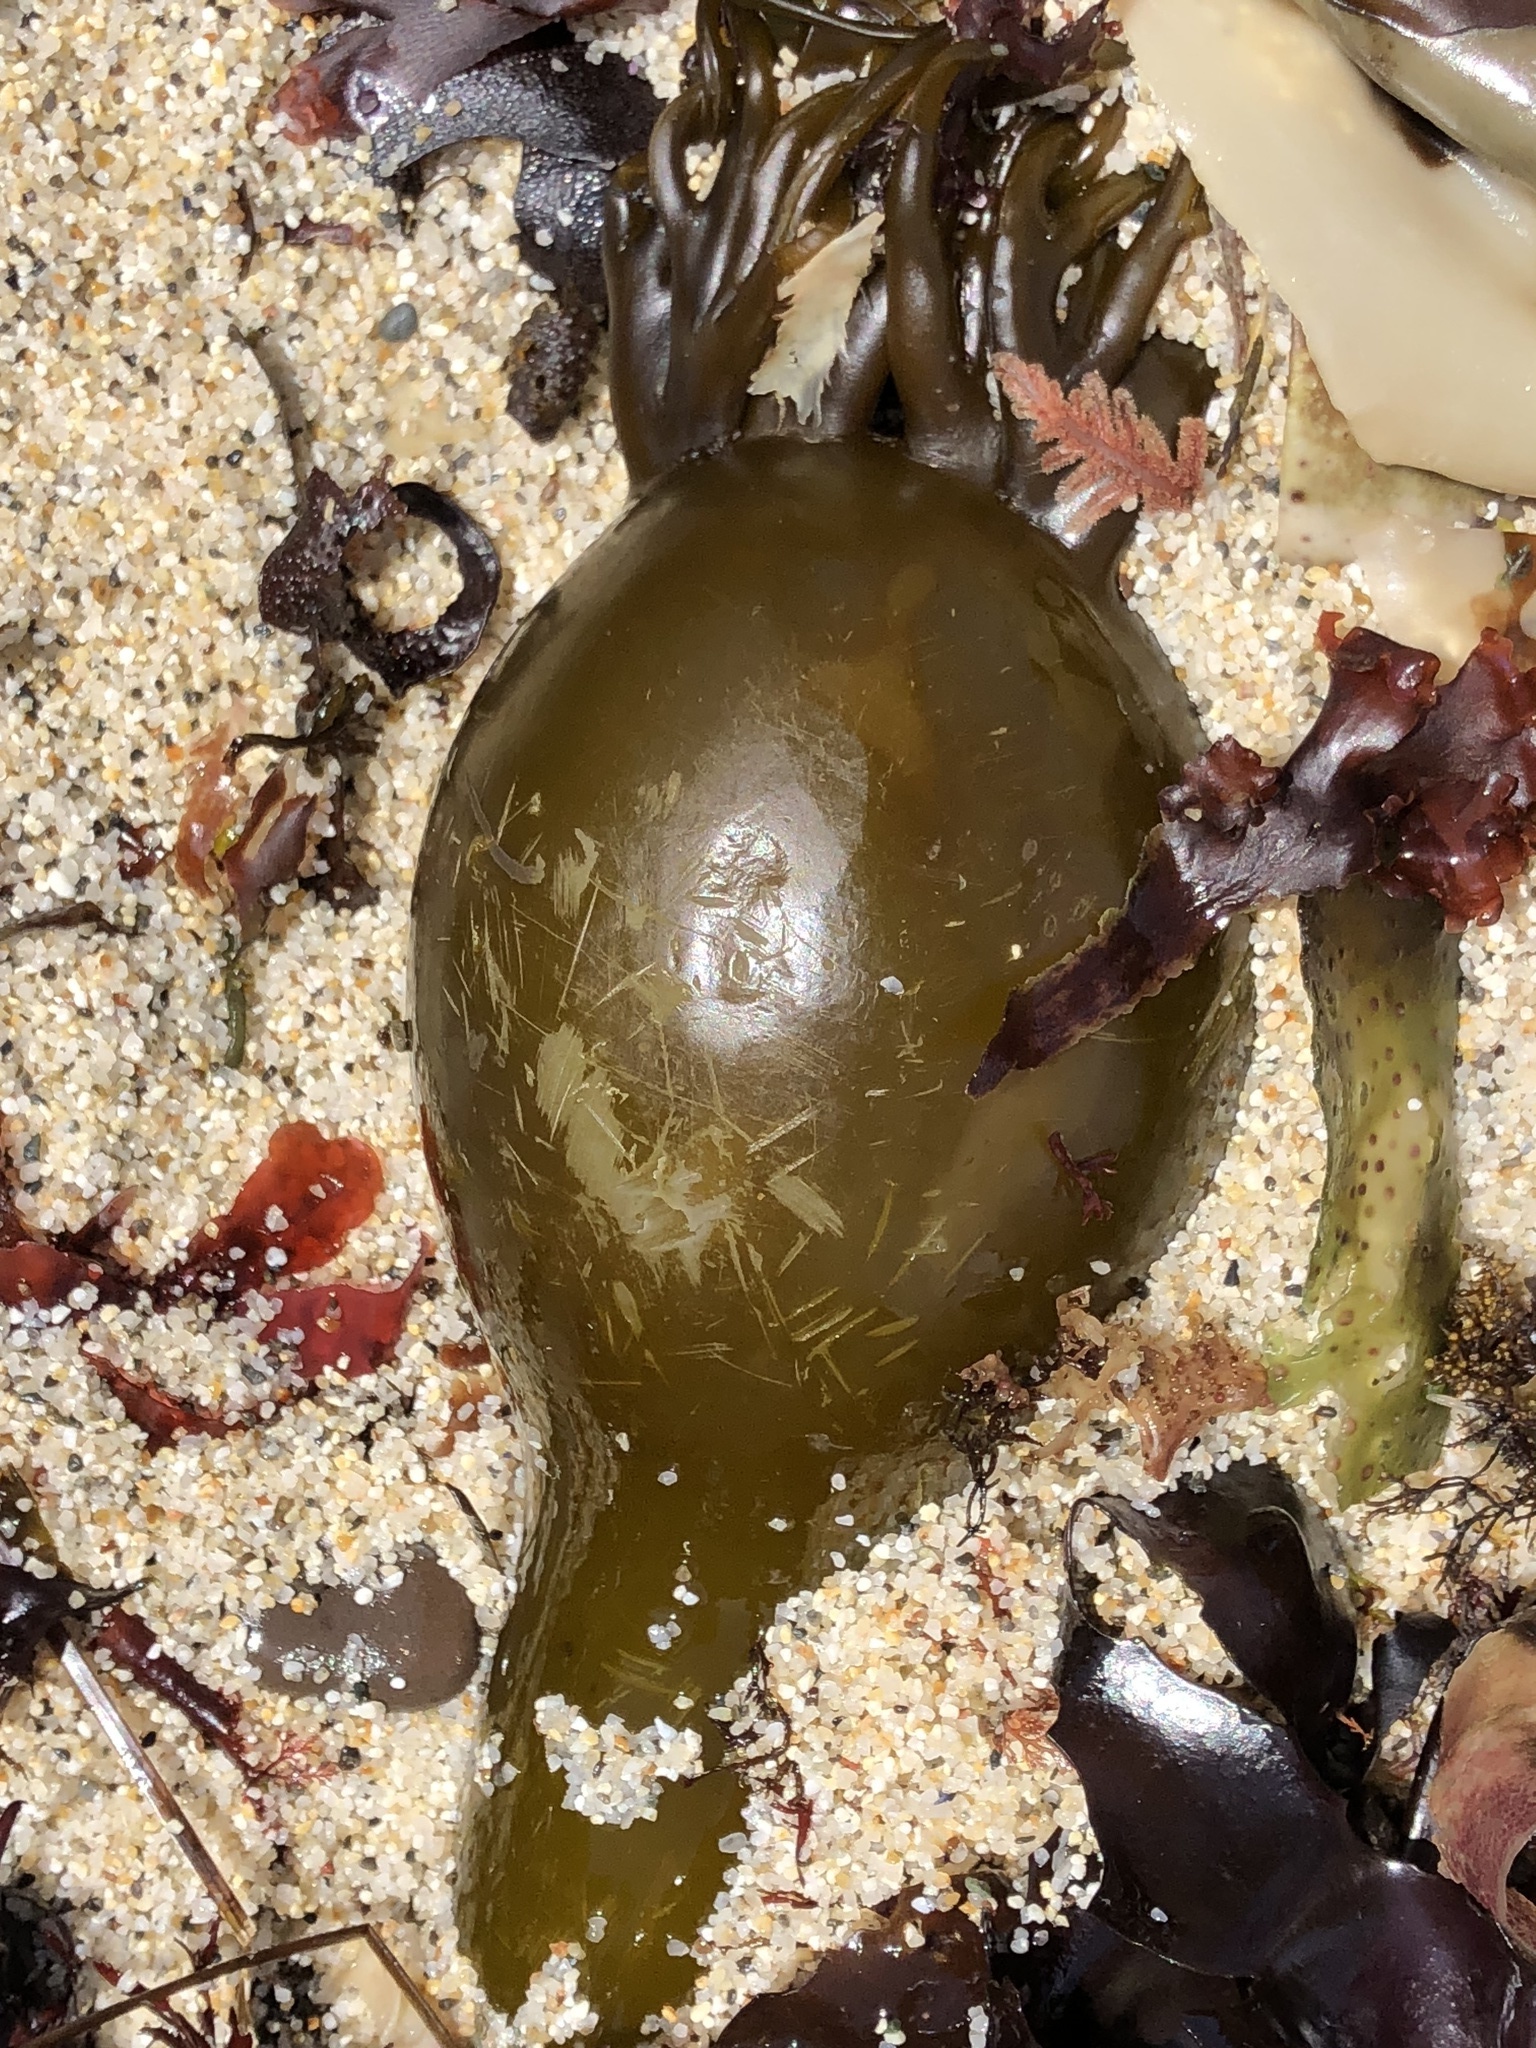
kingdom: Chromista
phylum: Ochrophyta
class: Phaeophyceae
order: Laminariales
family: Laminariaceae
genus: Nereocystis
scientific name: Nereocystis luetkeana
